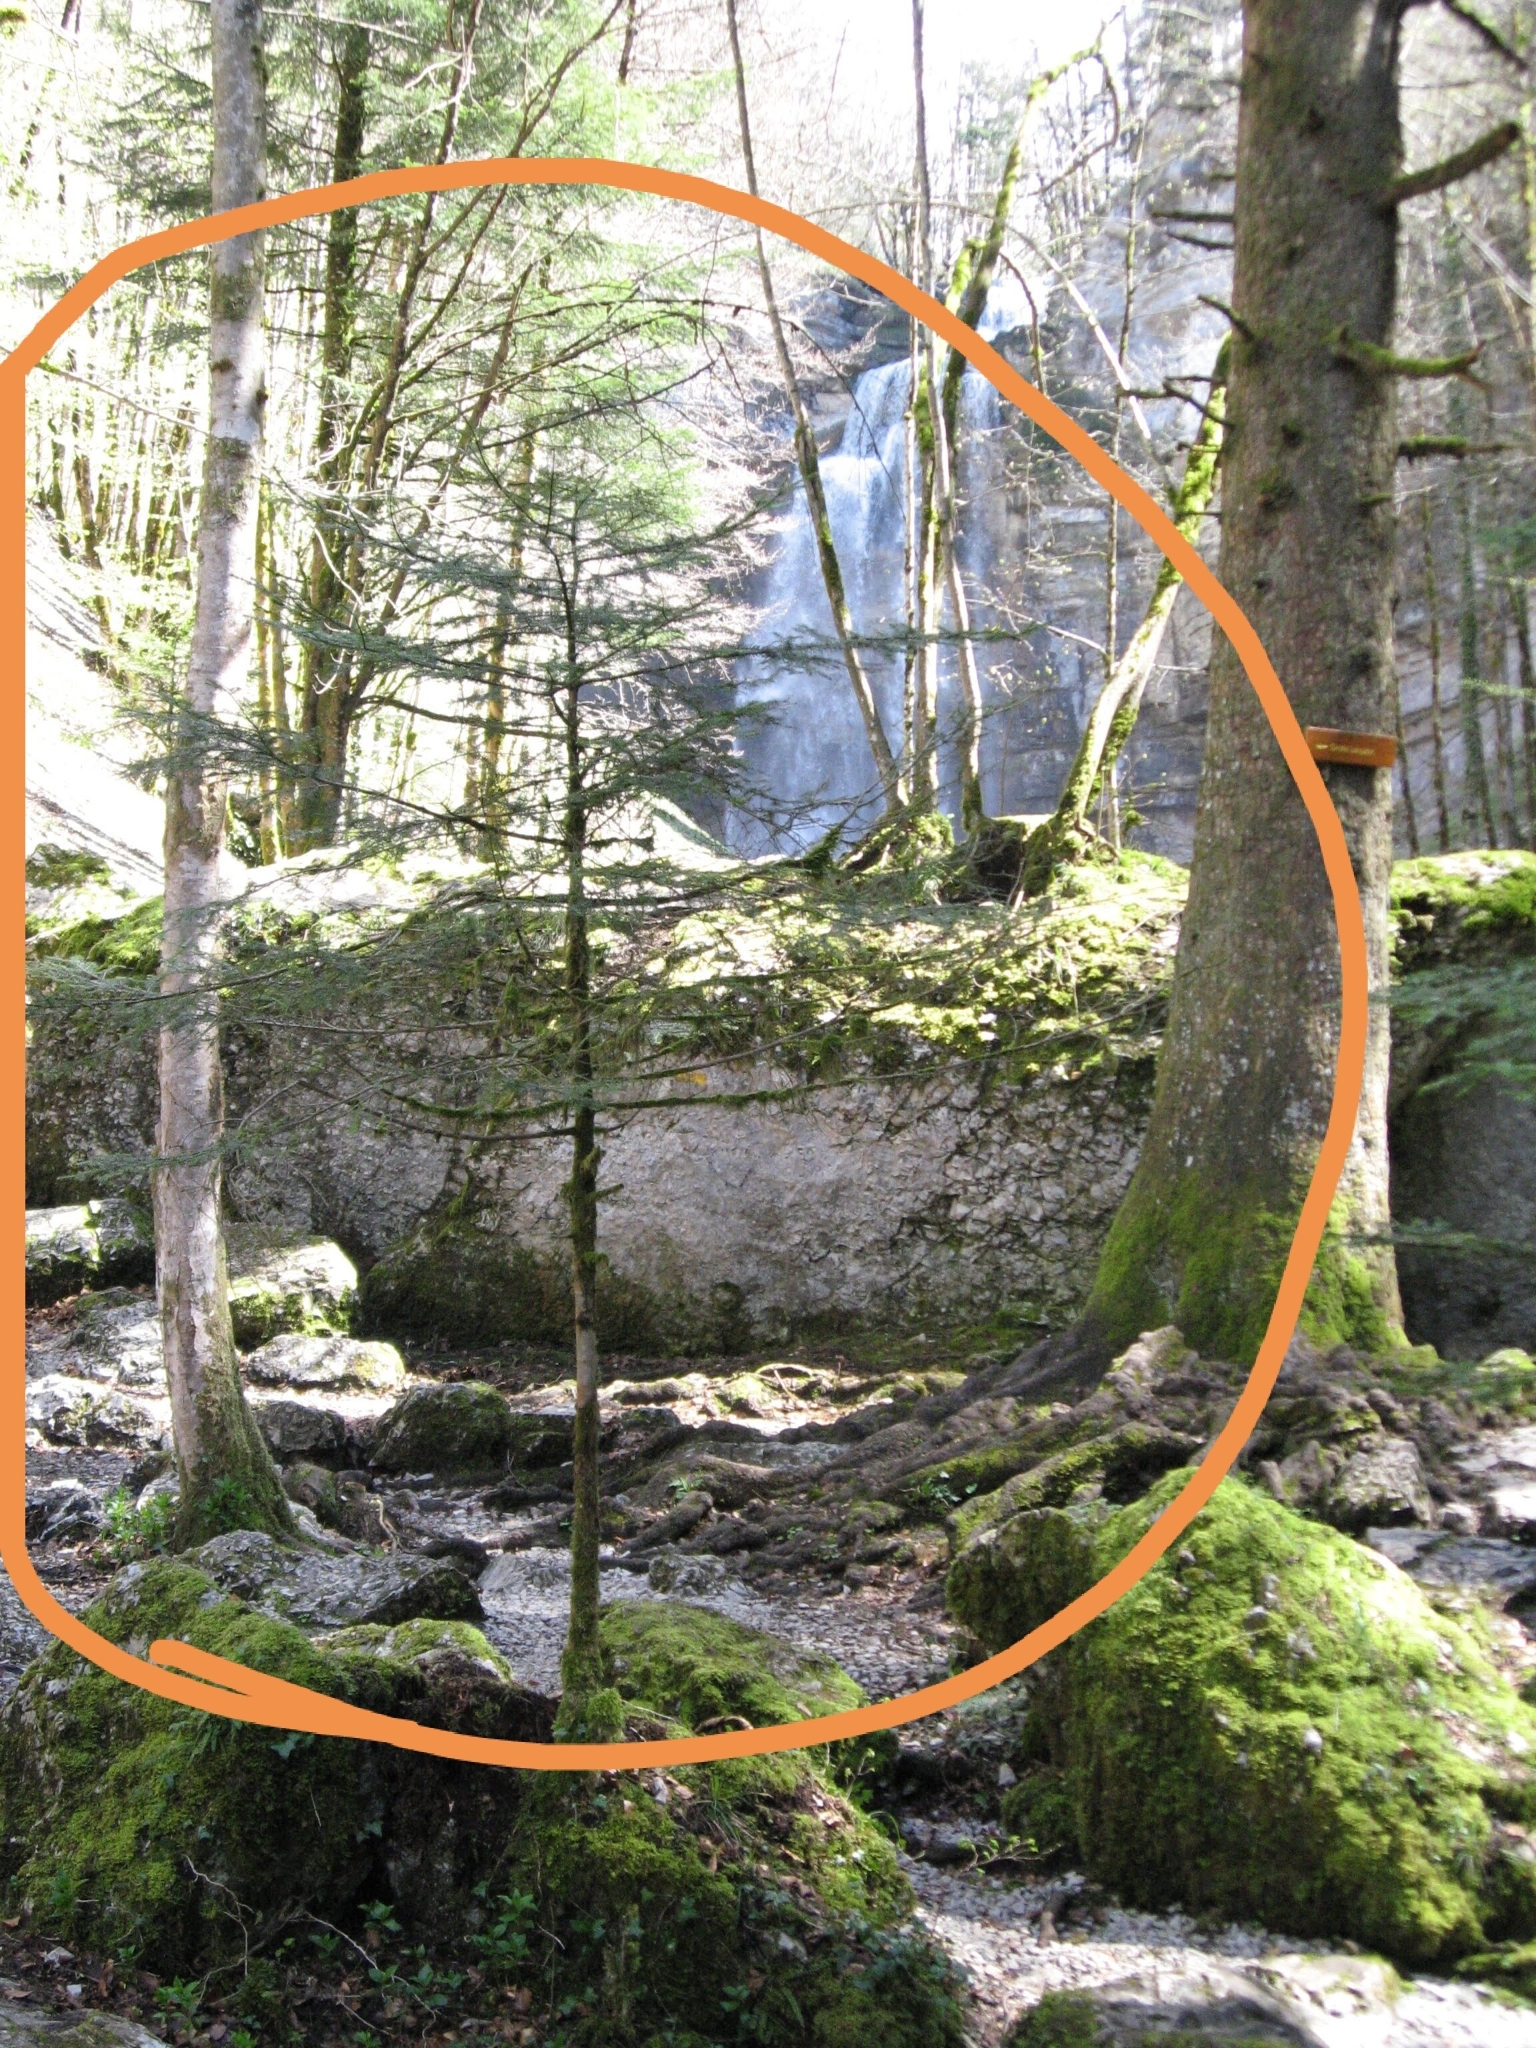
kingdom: Plantae
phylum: Tracheophyta
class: Pinopsida
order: Pinales
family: Pinaceae
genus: Tsuga
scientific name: Tsuga canadensis
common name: Eastern hemlock
